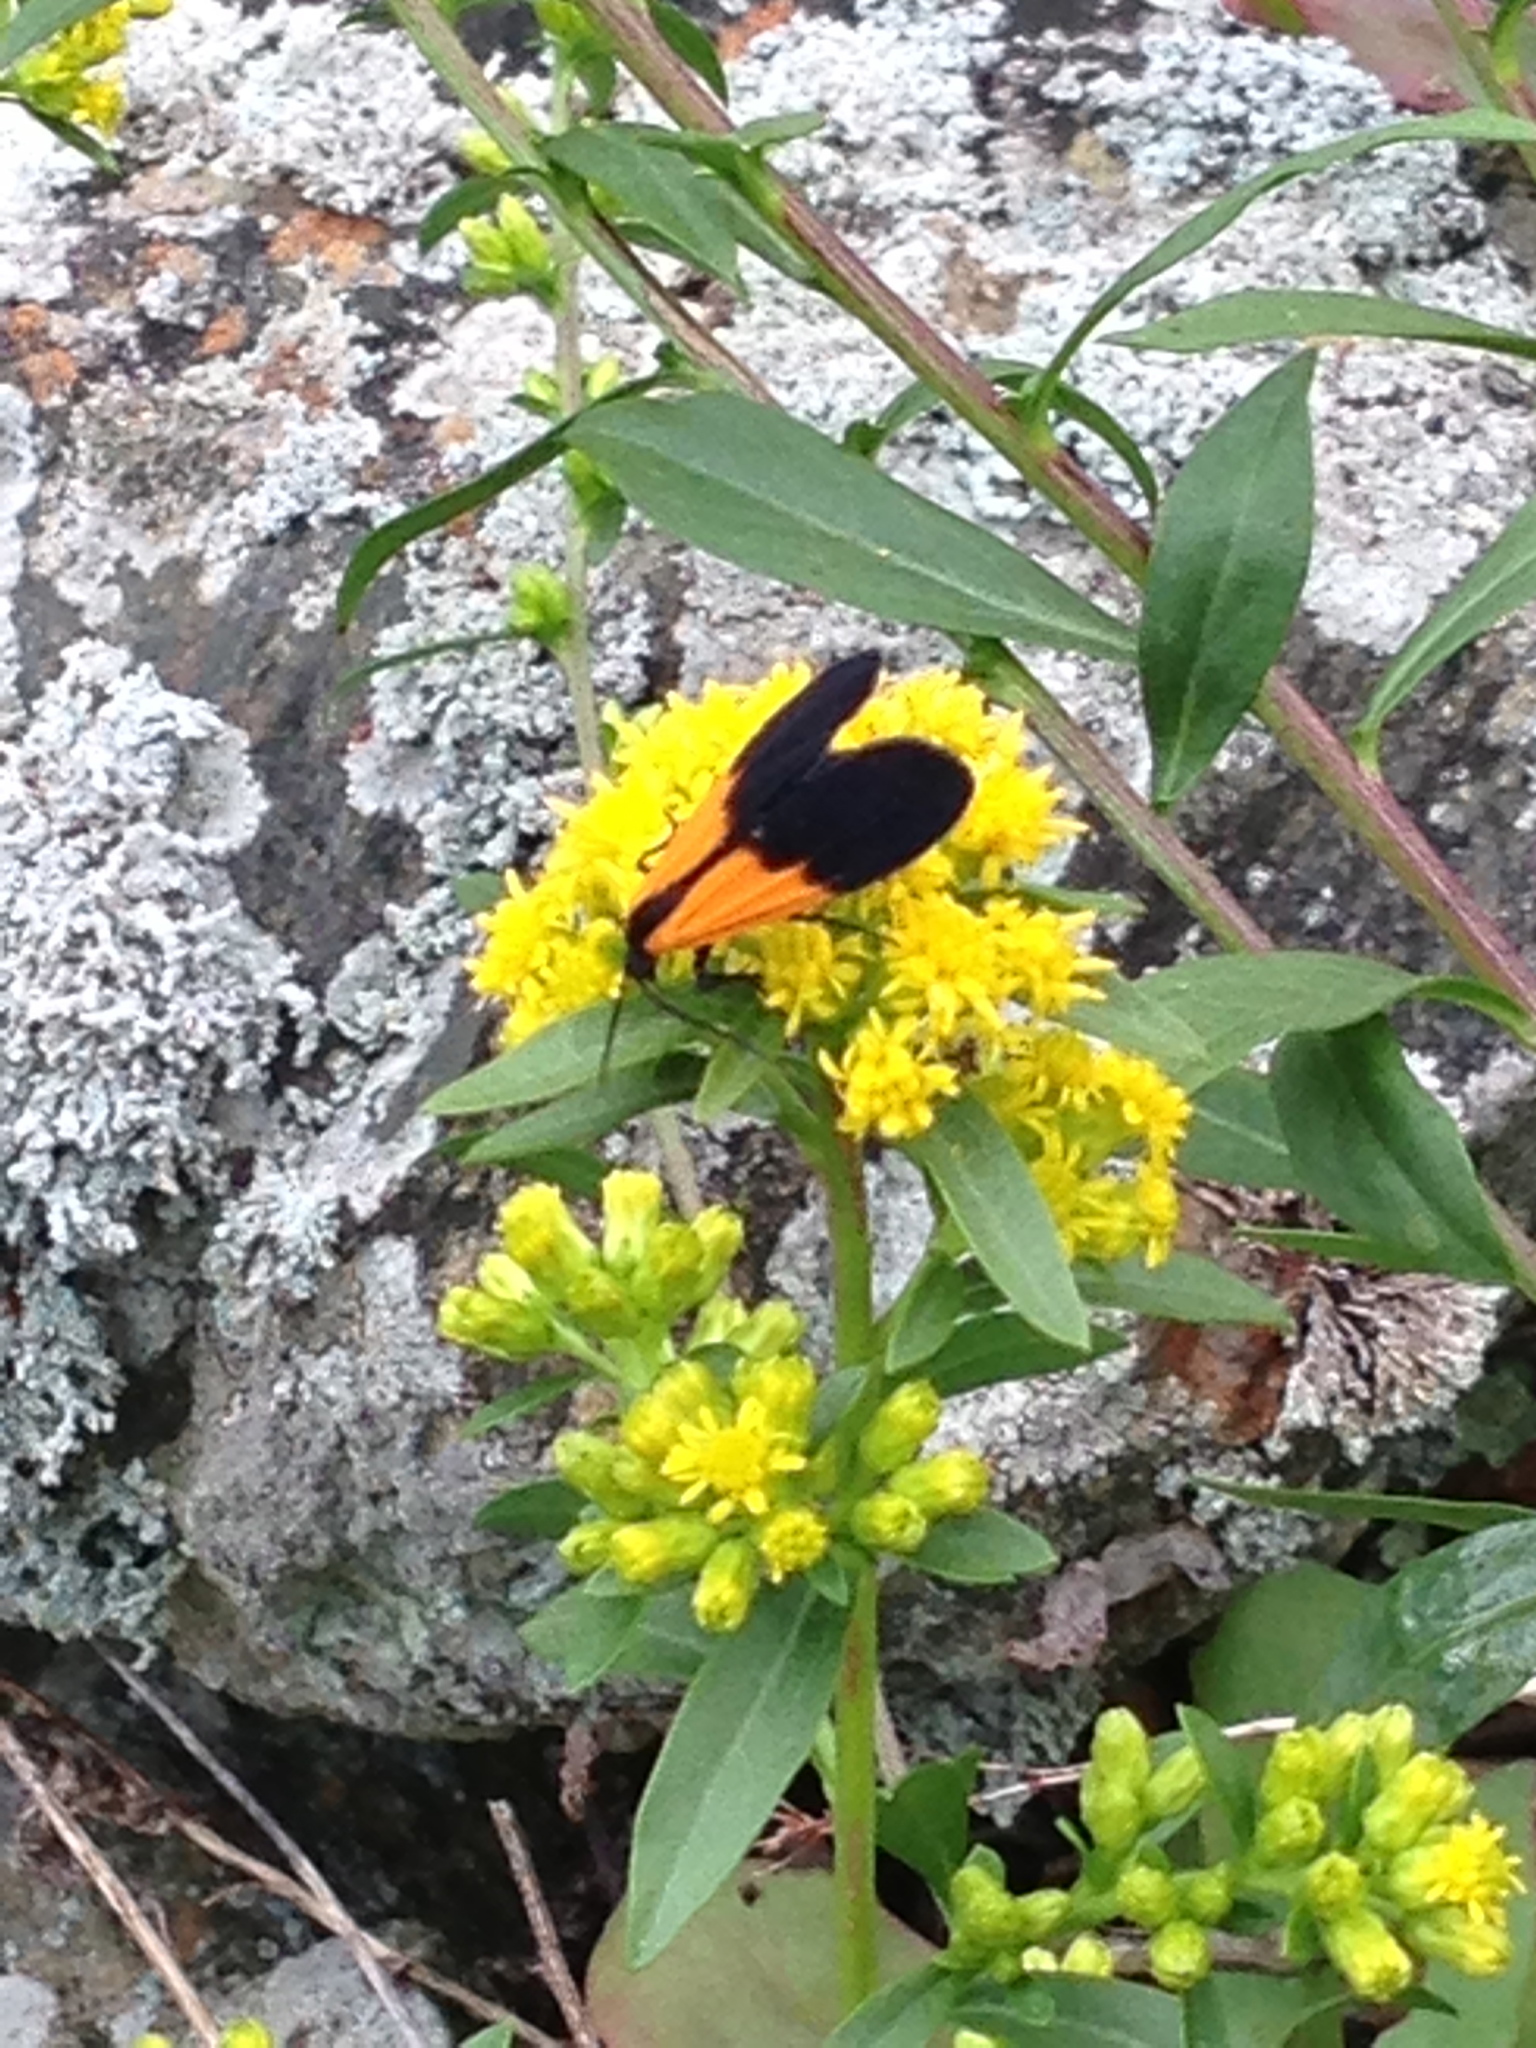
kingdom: Animalia
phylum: Arthropoda
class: Insecta
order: Lepidoptera
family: Erebidae
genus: Lycomorpha
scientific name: Lycomorpha pholus
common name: Black-and-yellow lichen moth
